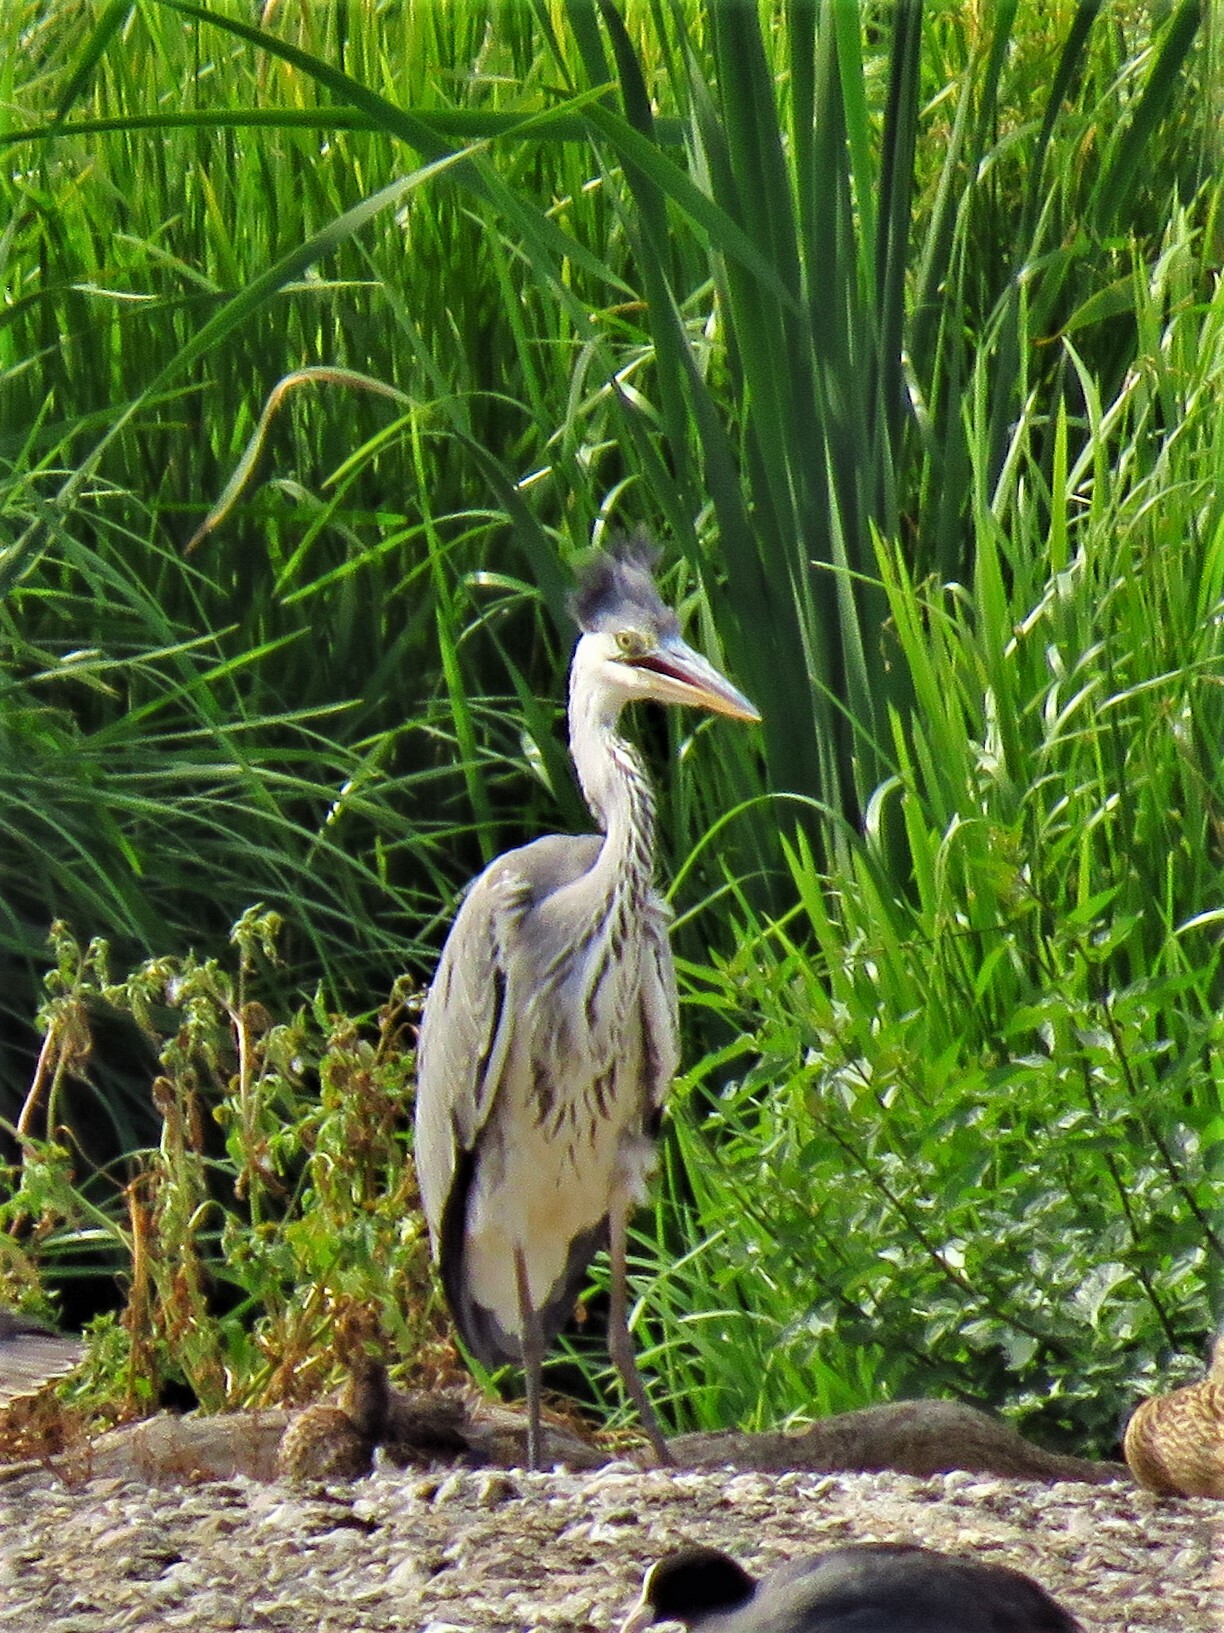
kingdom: Animalia
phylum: Chordata
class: Aves
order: Pelecaniformes
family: Ardeidae
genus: Ardea
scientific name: Ardea cinerea
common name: Grey heron
